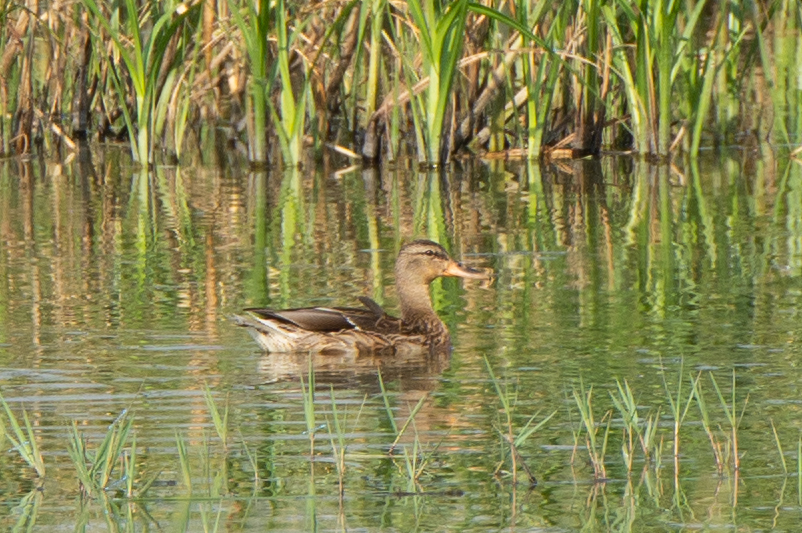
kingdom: Animalia
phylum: Chordata
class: Aves
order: Anseriformes
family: Anatidae
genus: Anas
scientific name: Anas platyrhynchos
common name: Mallard
